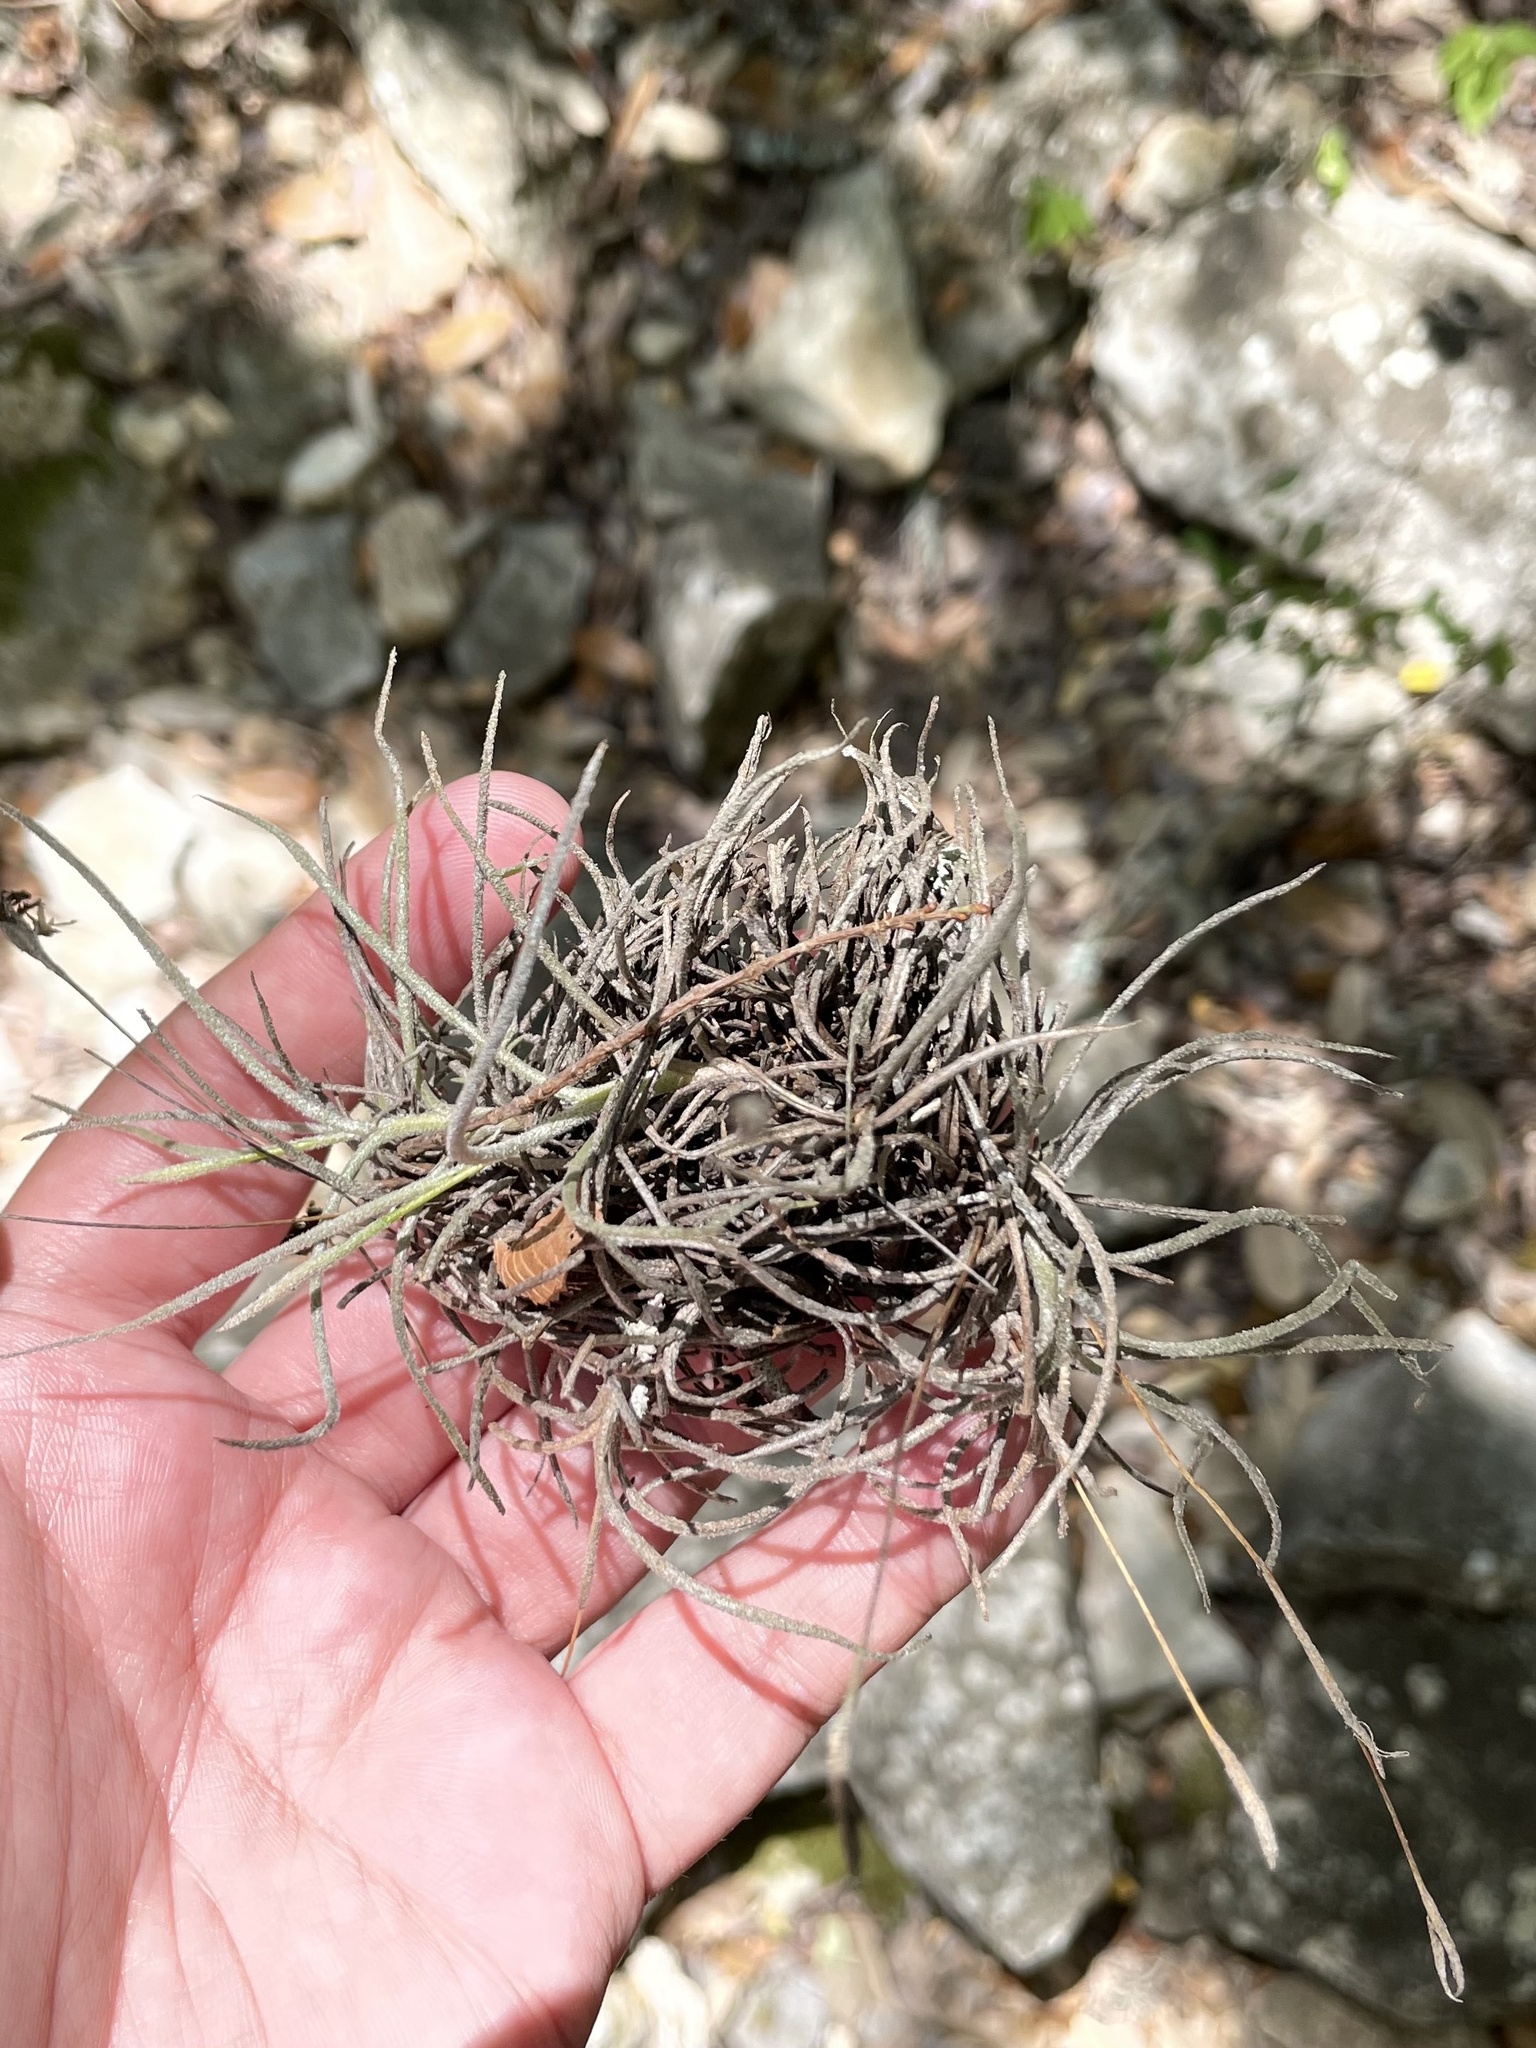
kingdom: Plantae
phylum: Tracheophyta
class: Liliopsida
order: Poales
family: Bromeliaceae
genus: Tillandsia
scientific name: Tillandsia recurvata
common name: Small ballmoss
